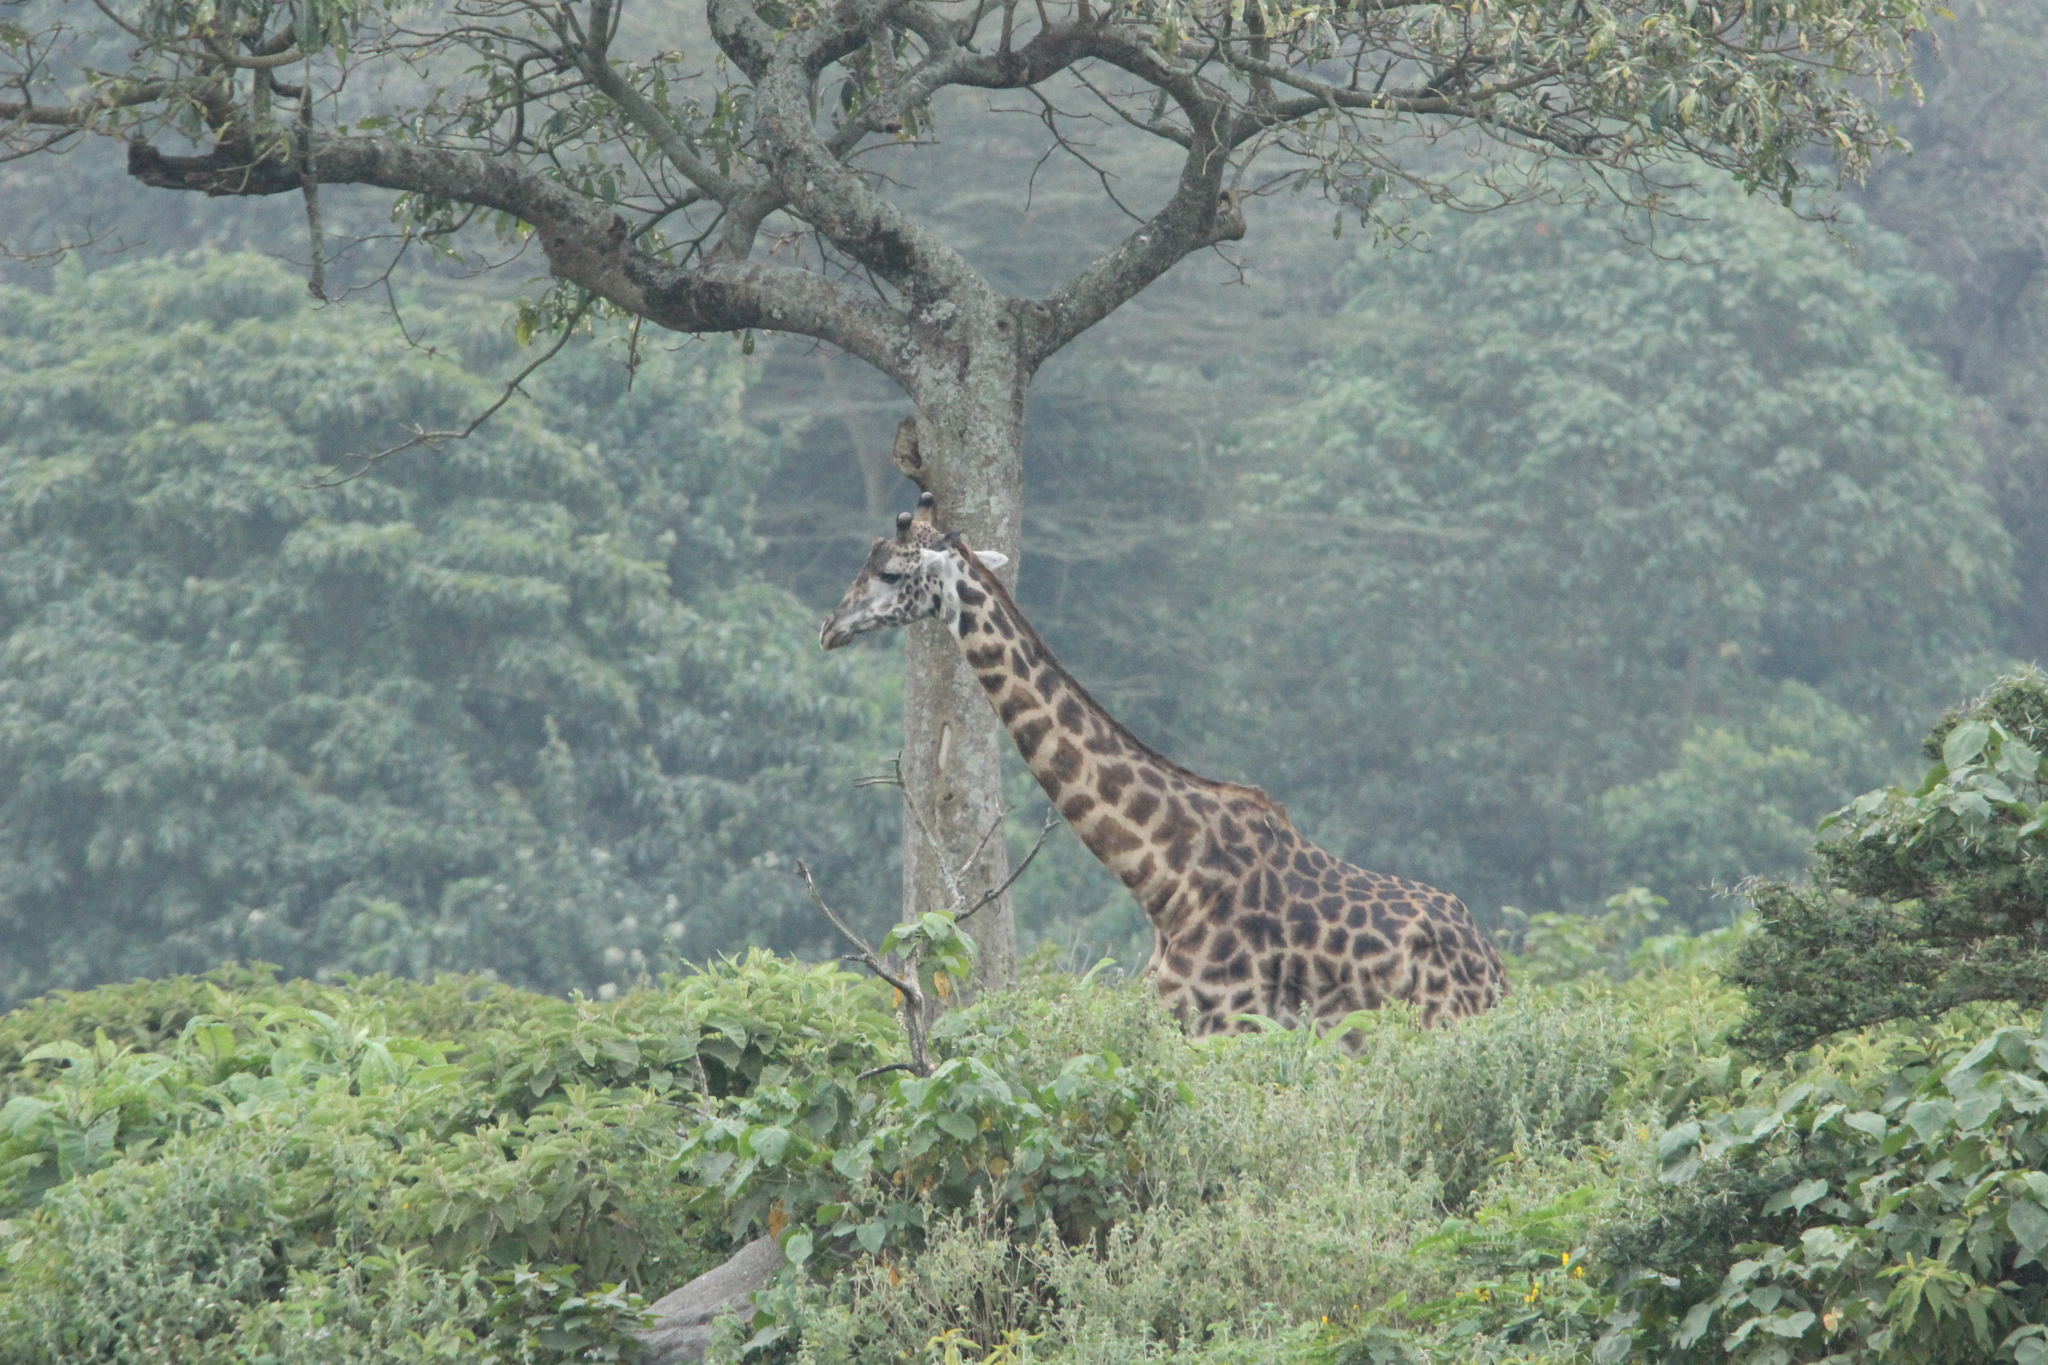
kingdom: Animalia
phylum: Chordata
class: Mammalia
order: Artiodactyla
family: Giraffidae
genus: Giraffa
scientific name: Giraffa tippelskirchi
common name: Masai giraffe
